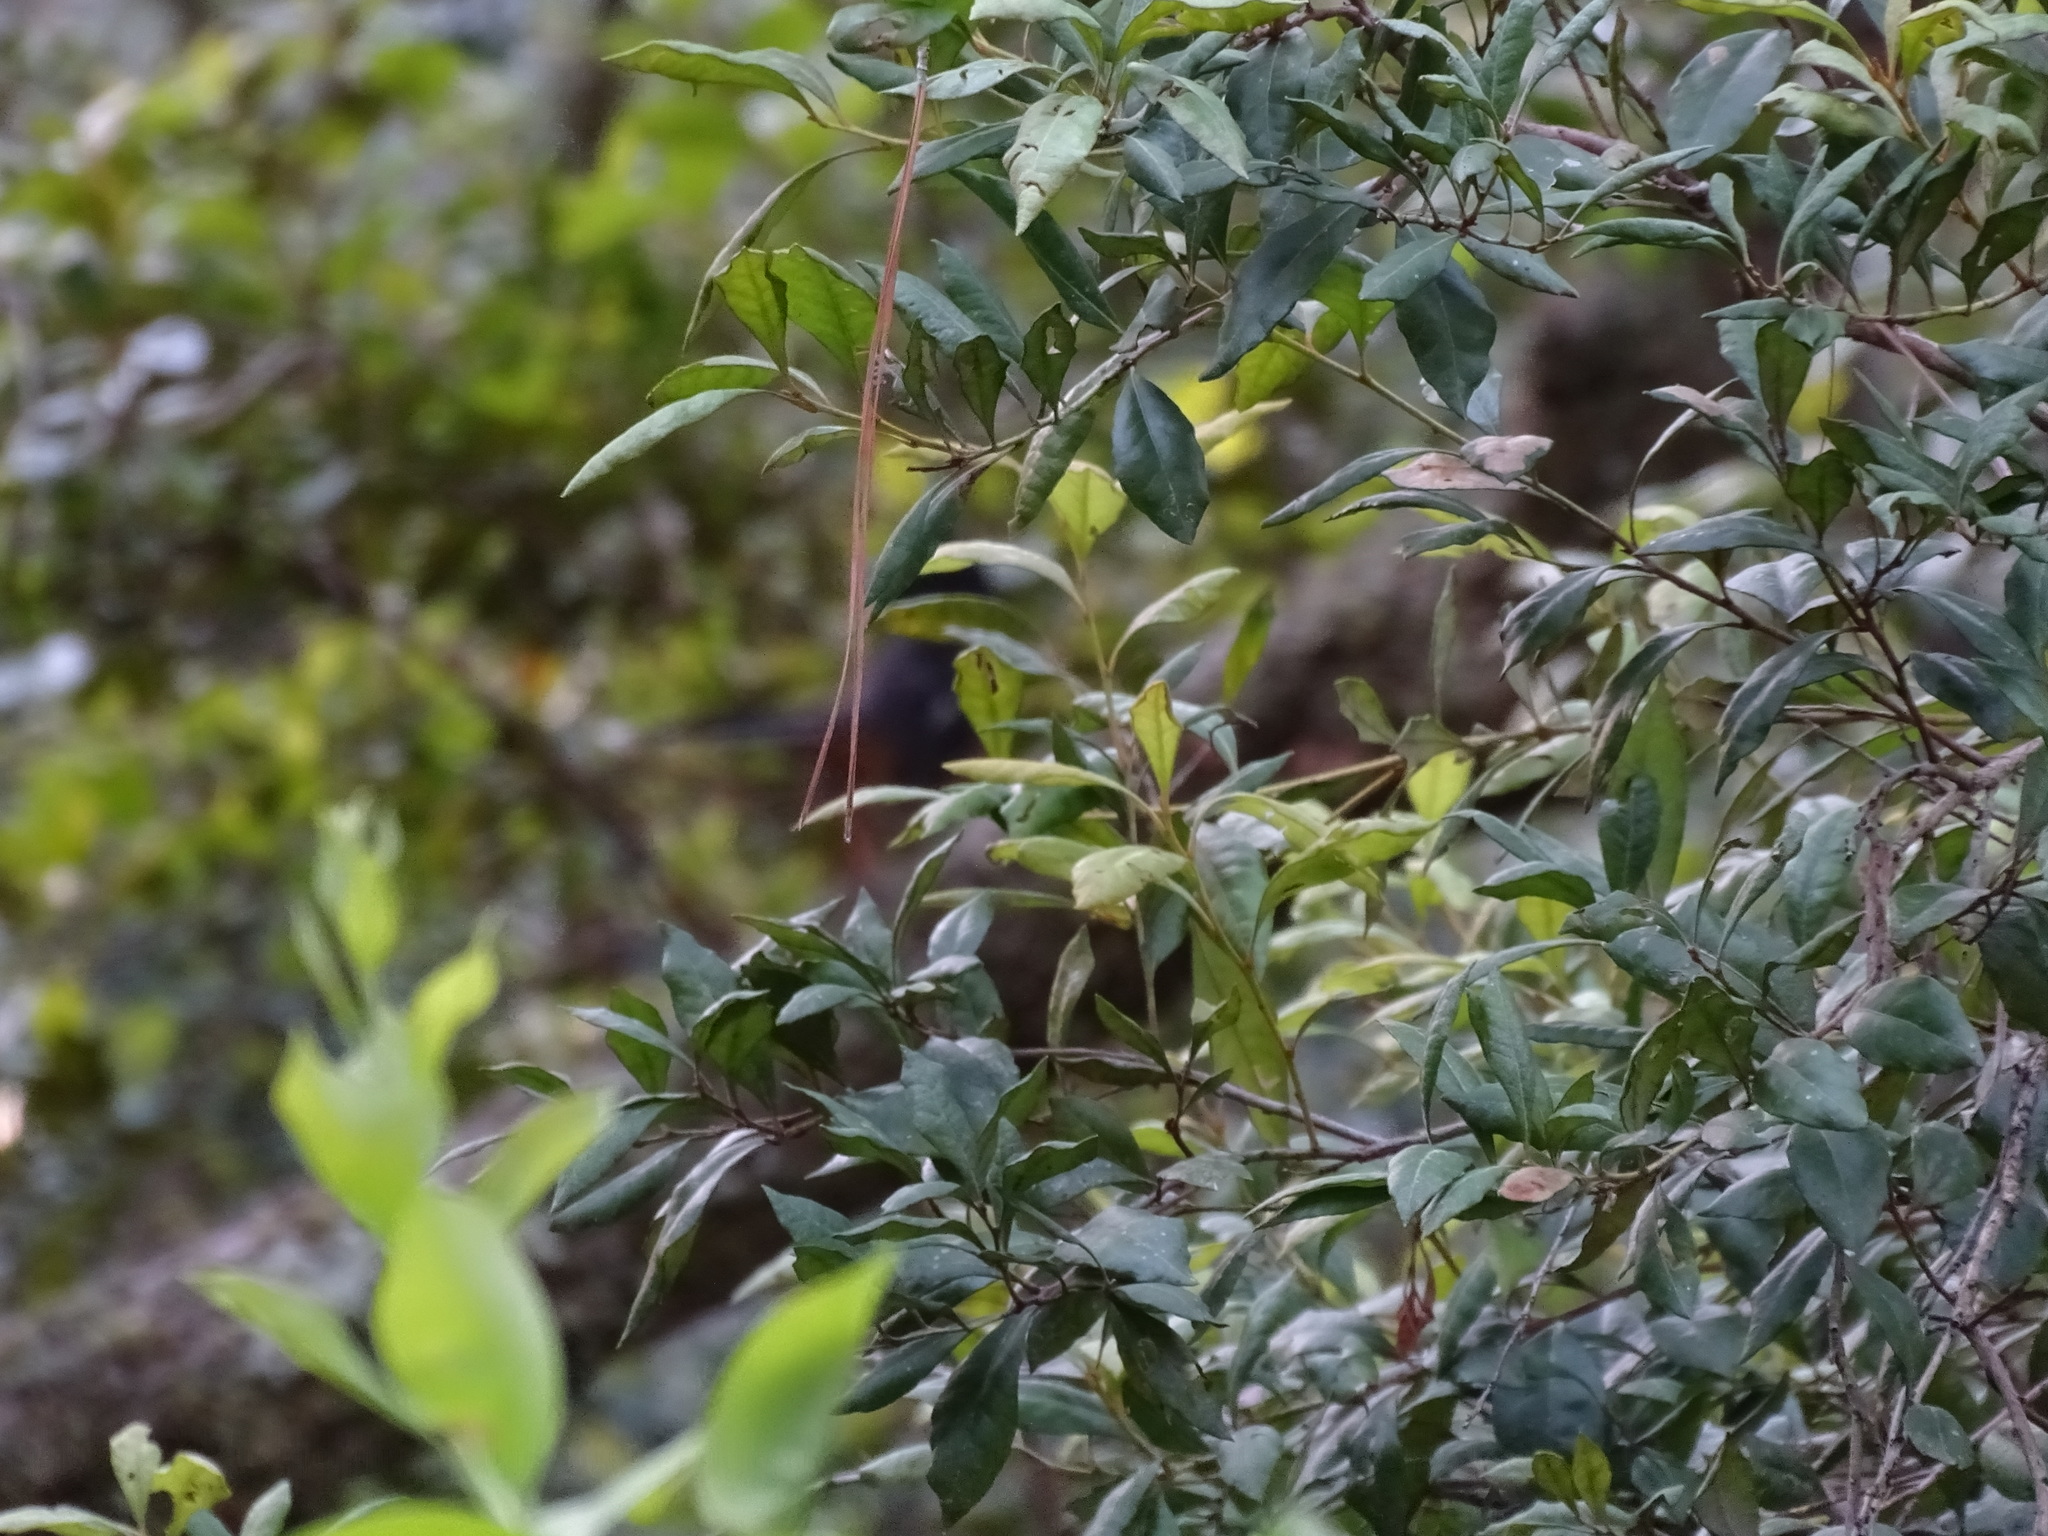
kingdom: Plantae
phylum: Tracheophyta
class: Magnoliopsida
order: Ericales
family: Ericaceae
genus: Lyonia
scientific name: Lyonia ferruginea
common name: Rusty lyonia
